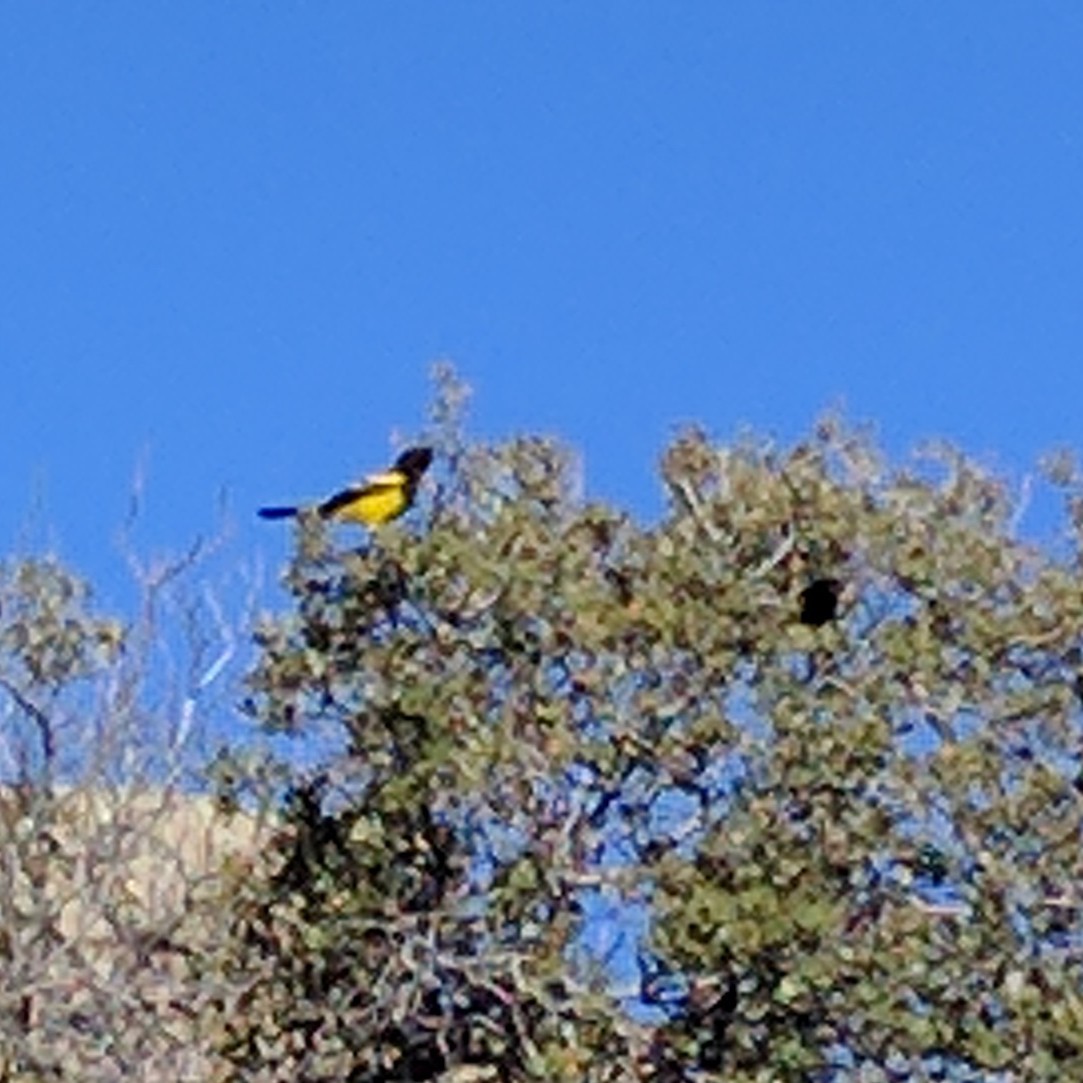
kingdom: Animalia
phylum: Chordata
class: Aves
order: Passeriformes
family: Icteridae
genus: Icterus
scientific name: Icterus parisorum
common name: Scott's oriole
